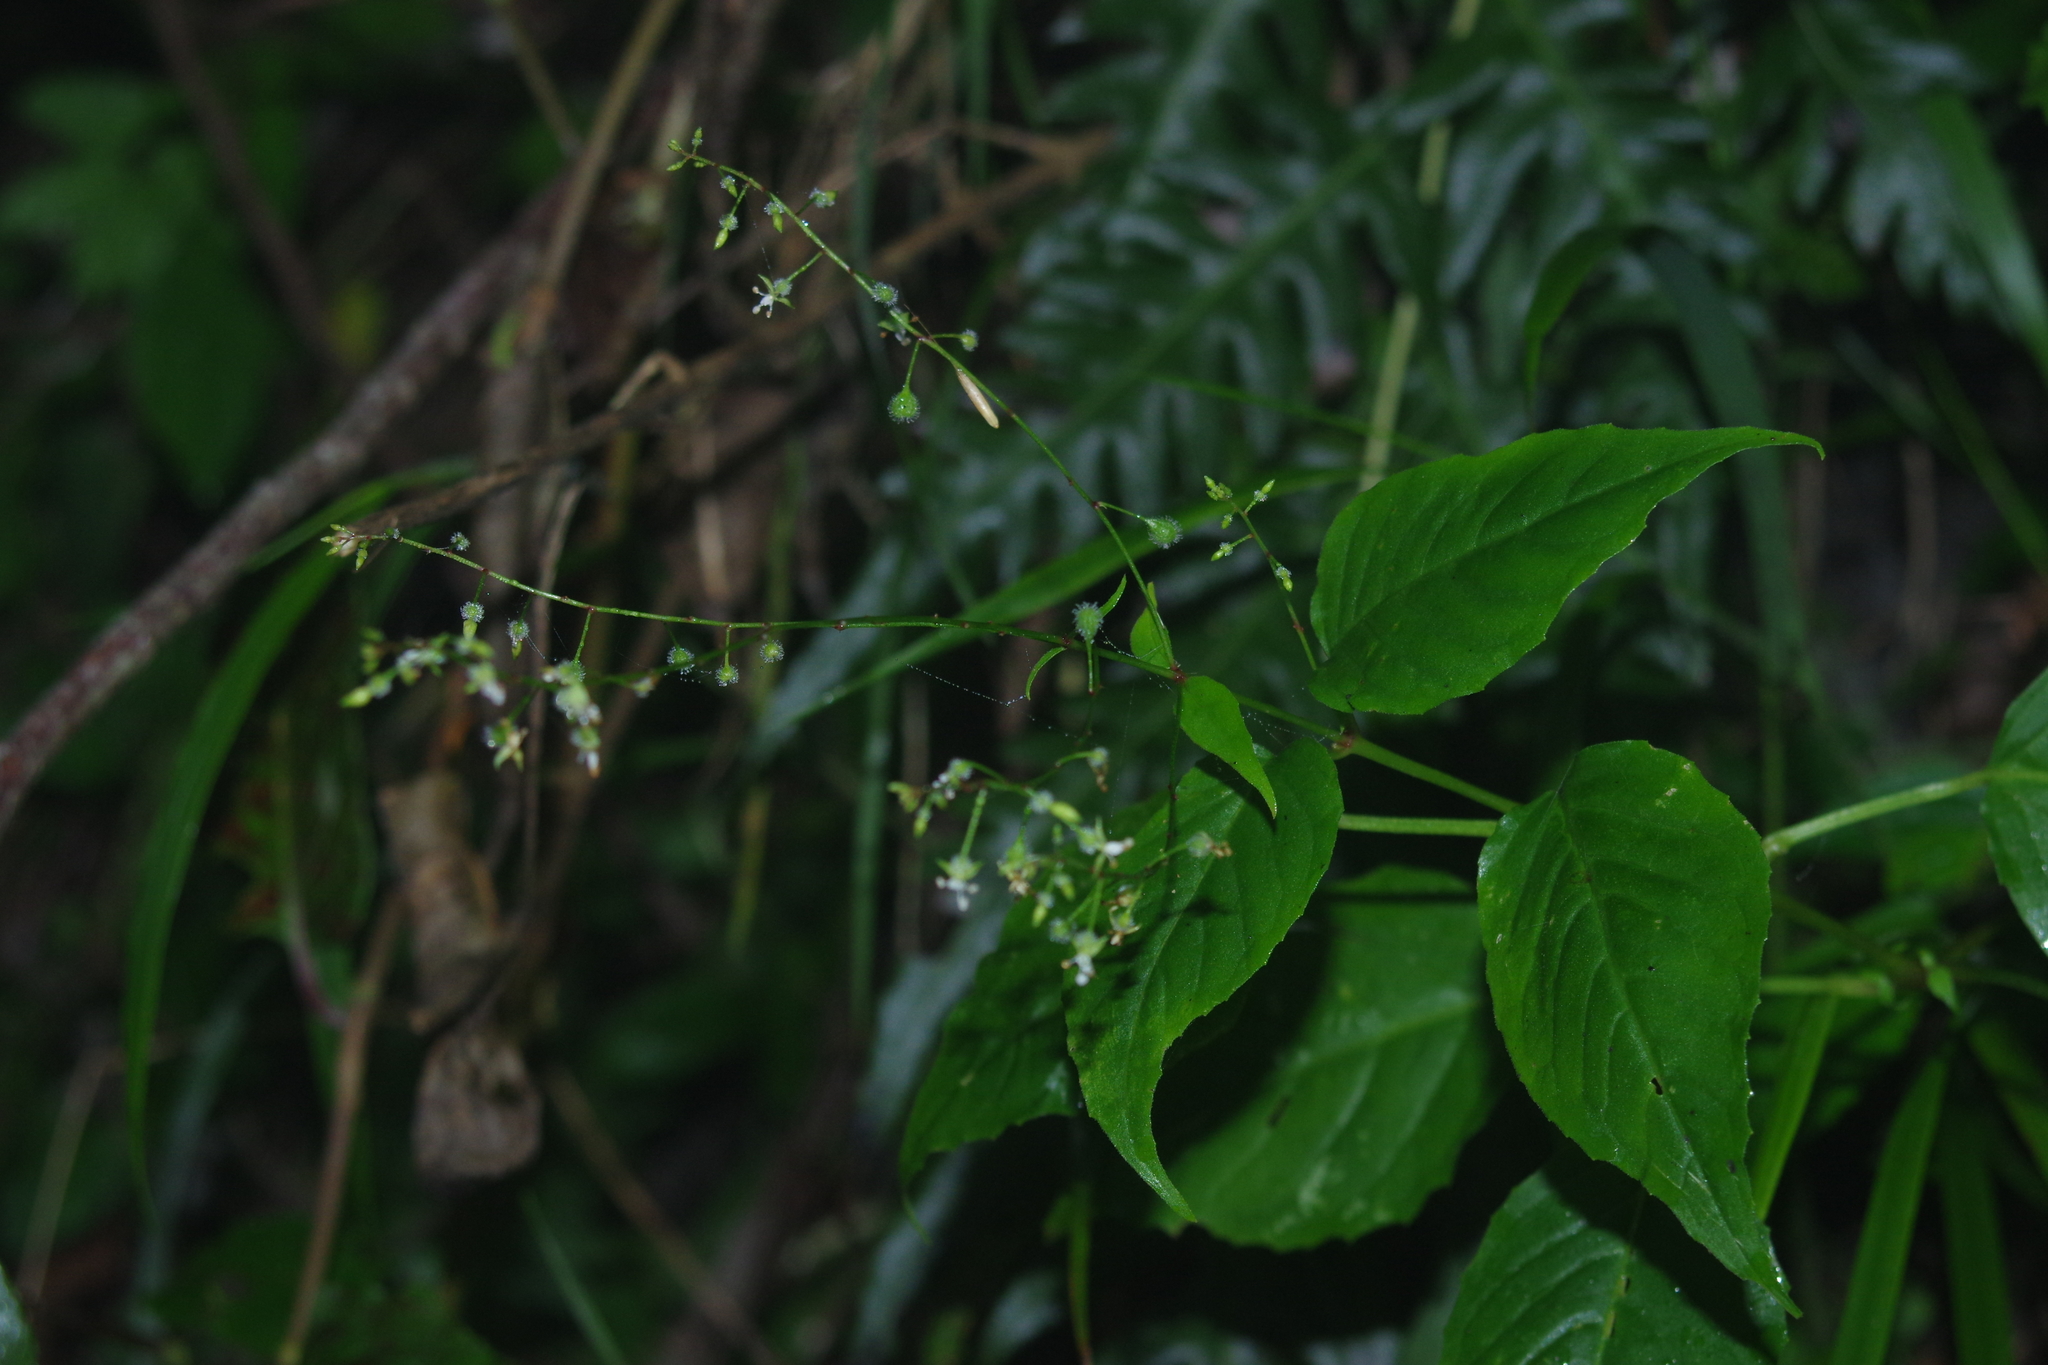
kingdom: Plantae
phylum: Tracheophyta
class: Magnoliopsida
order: Myrtales
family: Onagraceae
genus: Circaea
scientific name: Circaea erubescens
